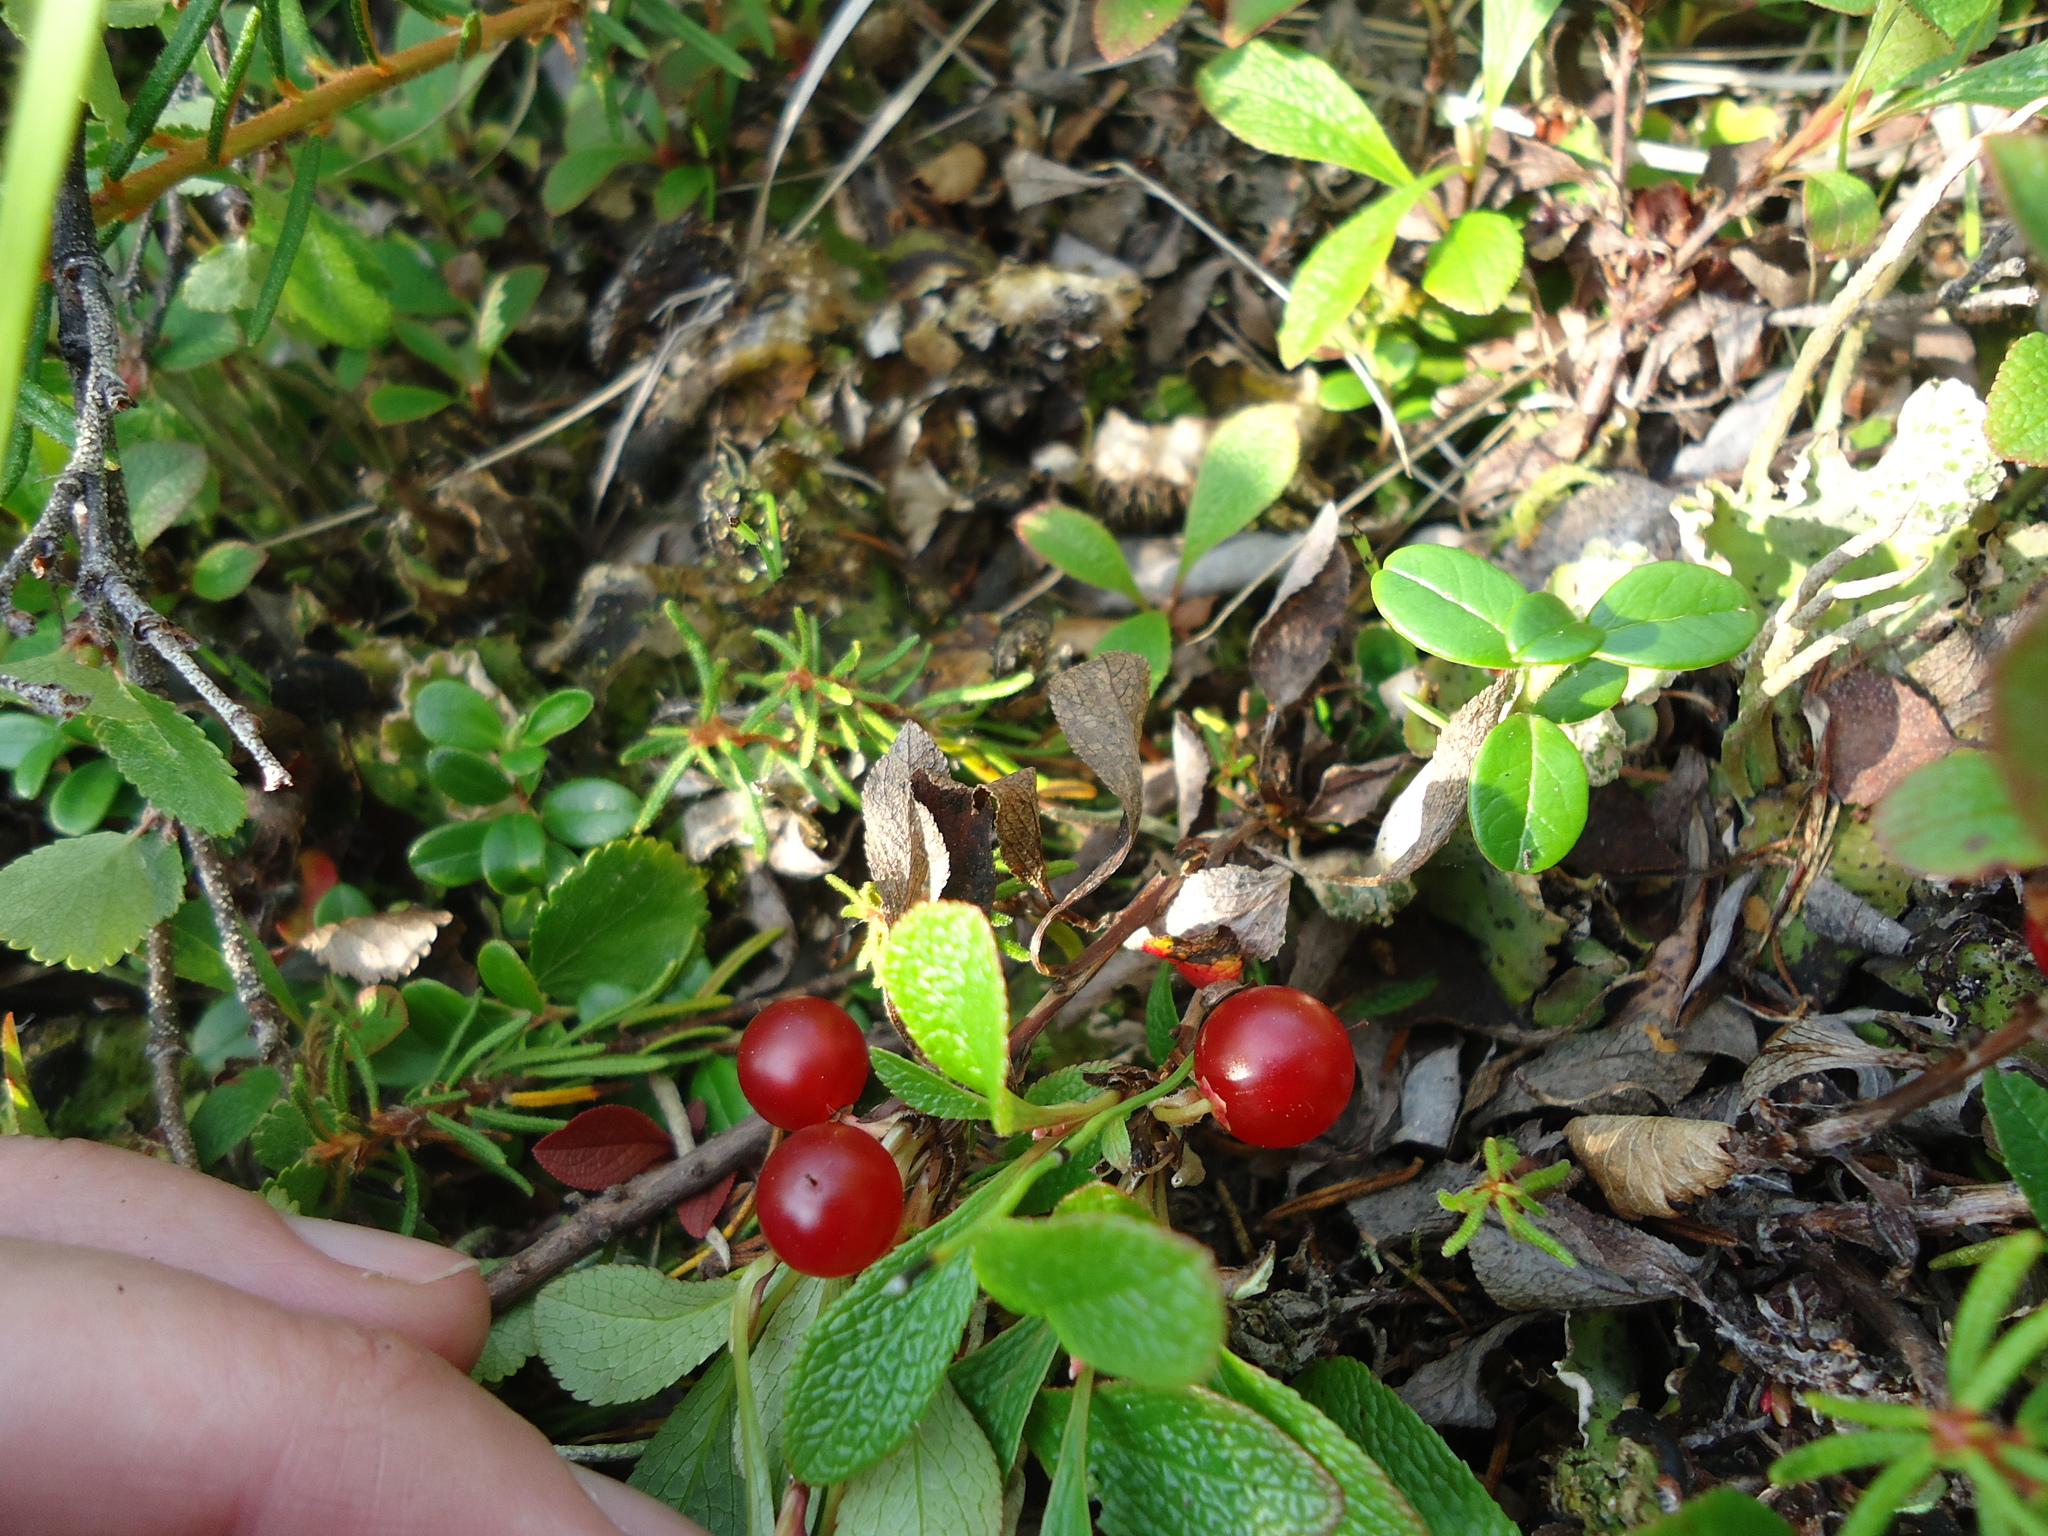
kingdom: Plantae
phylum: Tracheophyta
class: Magnoliopsida
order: Ericales
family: Ericaceae
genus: Arctostaphylos
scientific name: Arctostaphylos rubra
